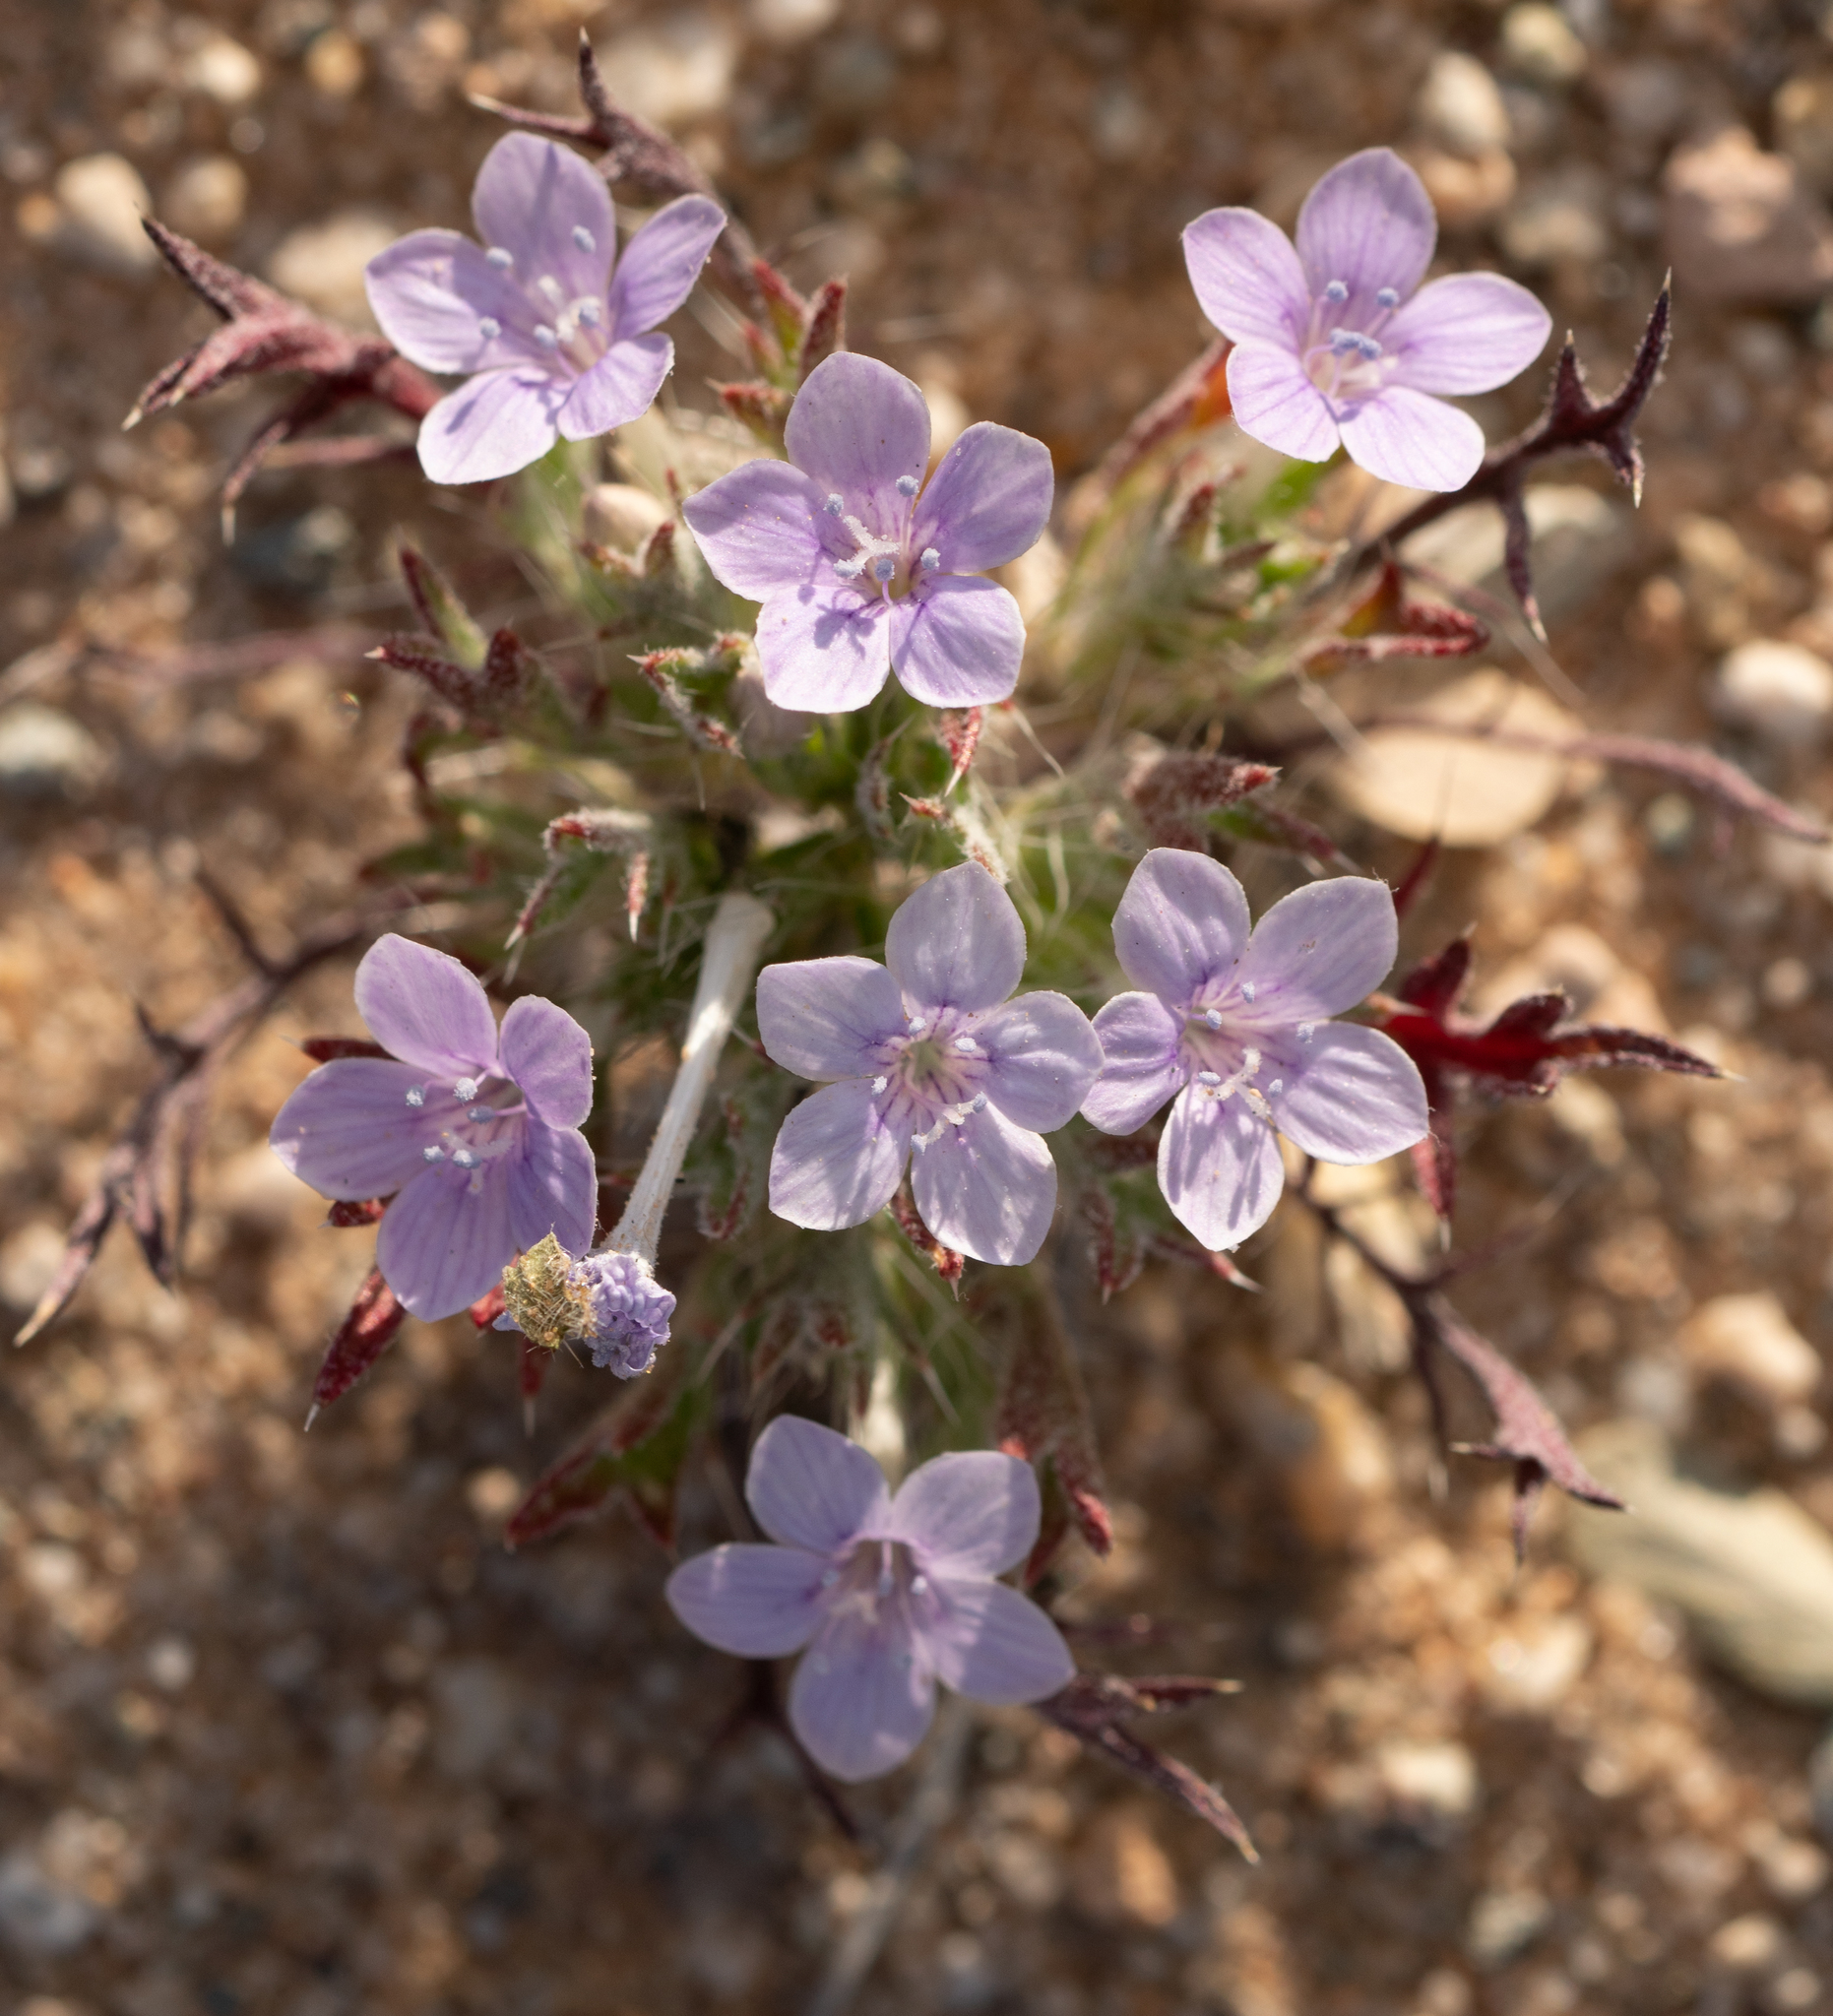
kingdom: Plantae
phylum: Tracheophyta
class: Magnoliopsida
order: Ericales
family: Polemoniaceae
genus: Langloisia
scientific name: Langloisia setosissima
